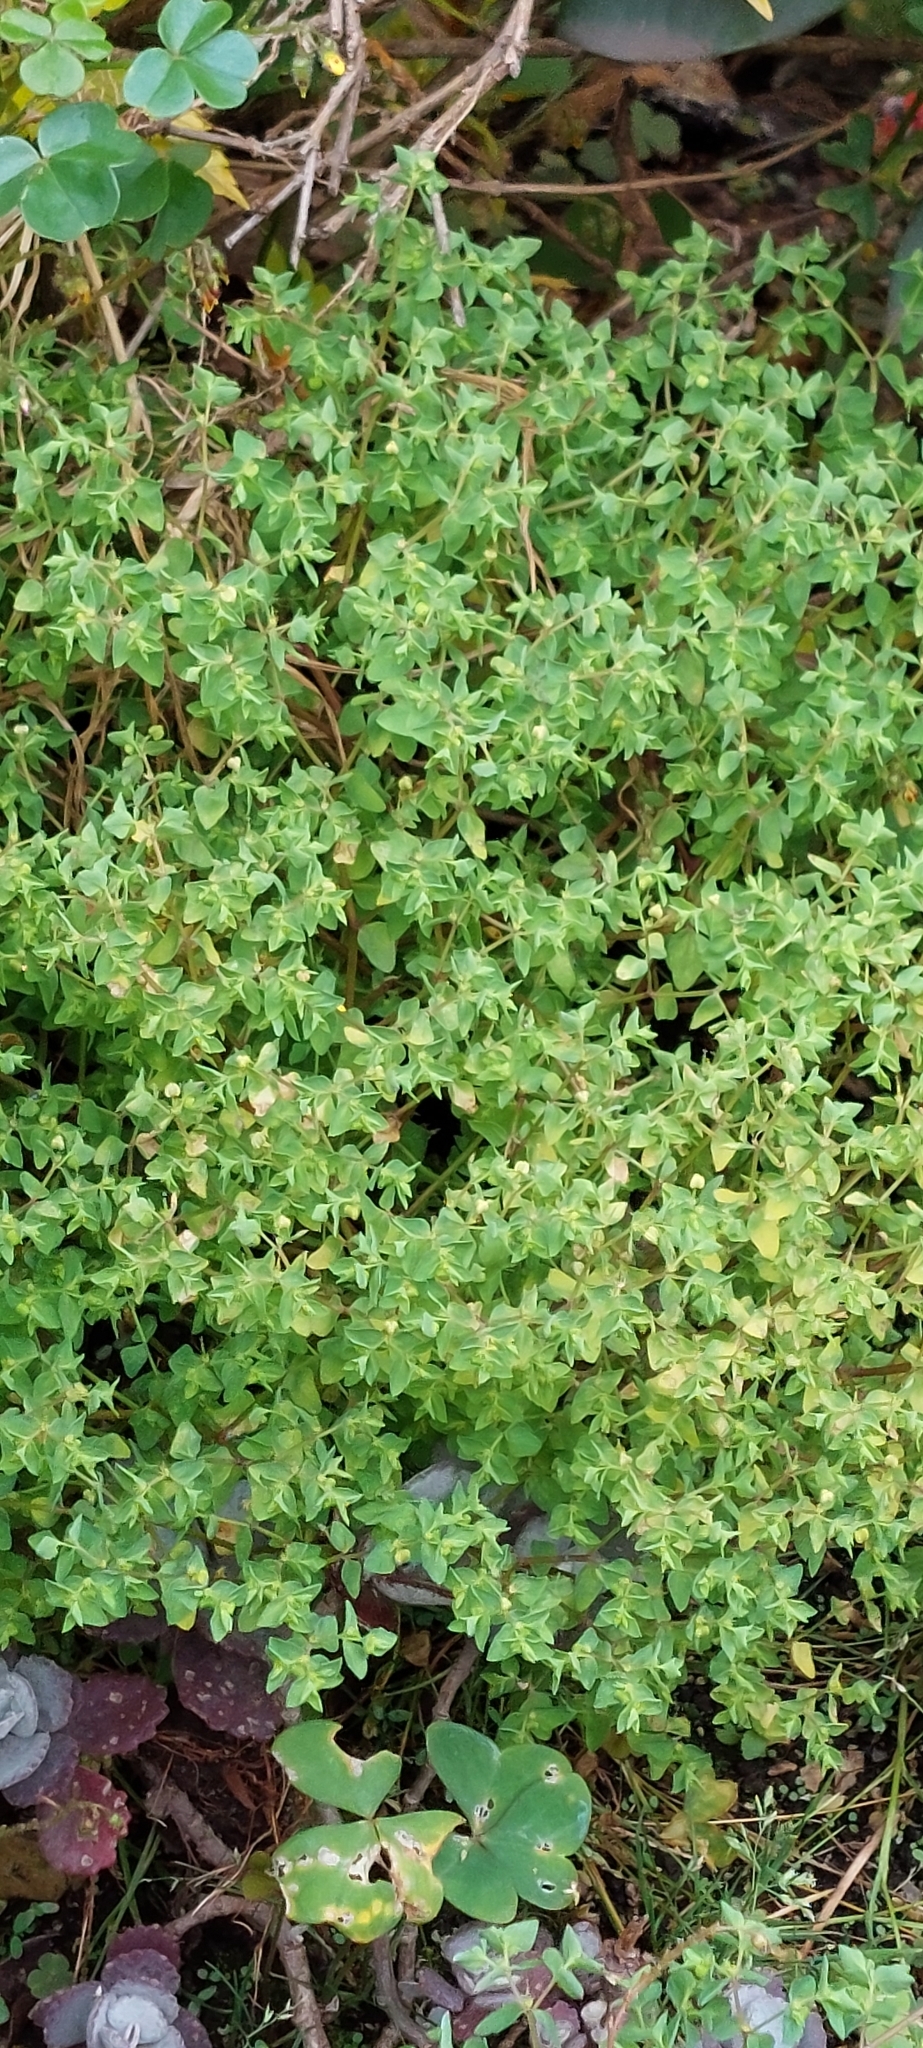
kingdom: Plantae
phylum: Tracheophyta
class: Magnoliopsida
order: Malpighiales
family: Euphorbiaceae
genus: Euphorbia
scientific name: Euphorbia peplus
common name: Petty spurge
